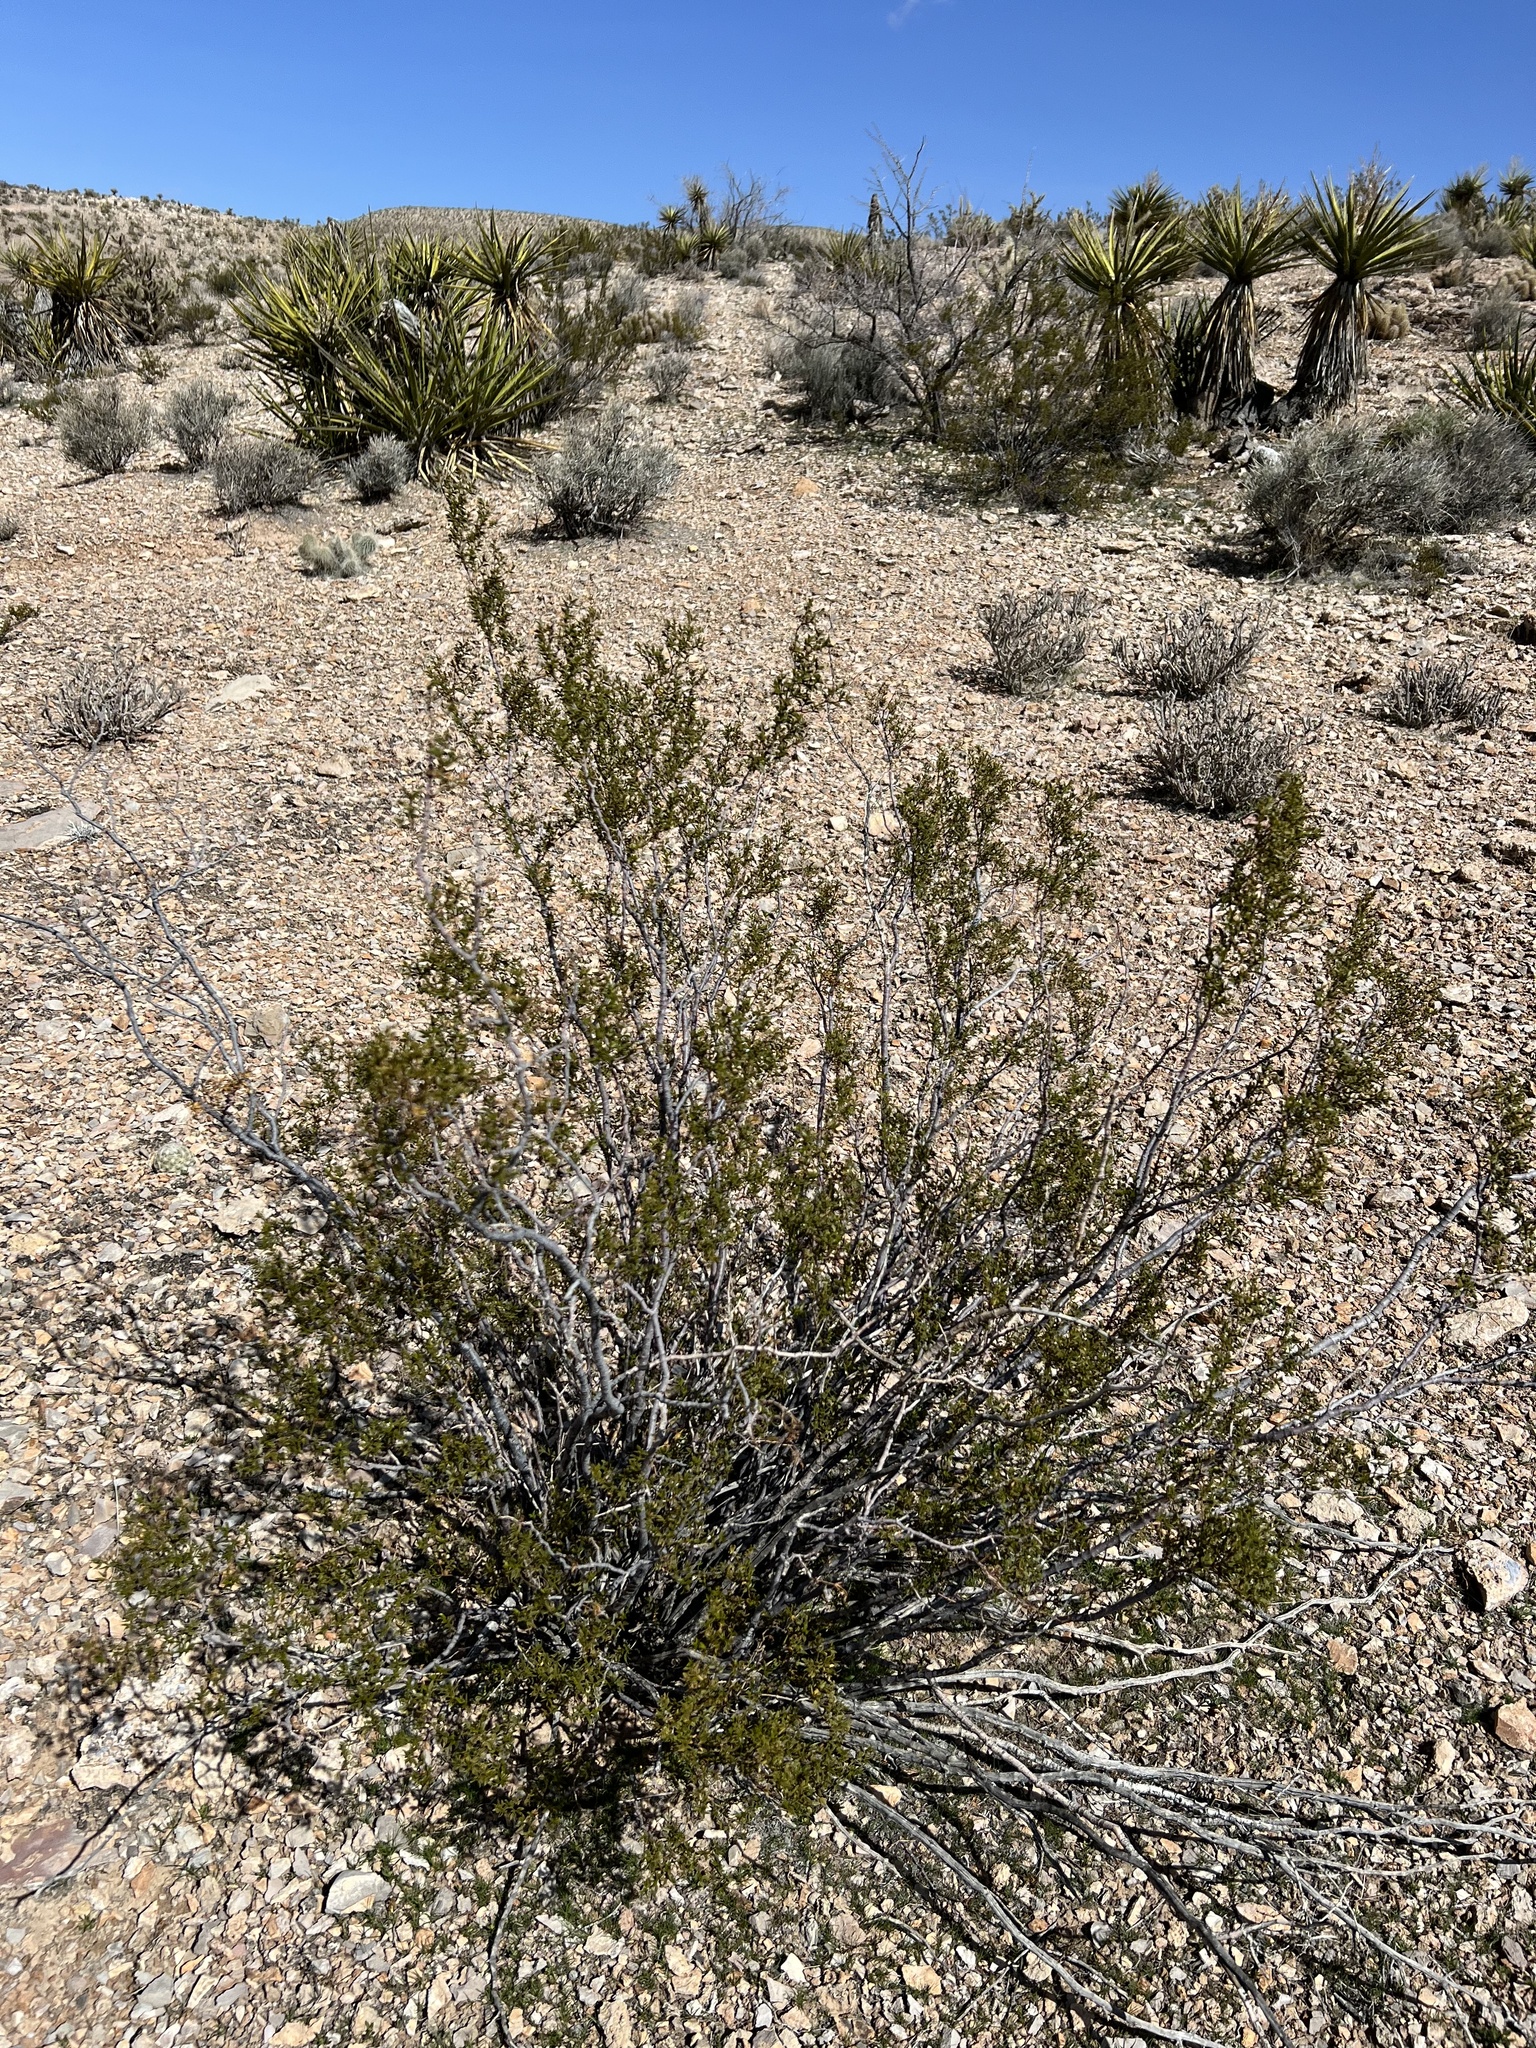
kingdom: Plantae
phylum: Tracheophyta
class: Magnoliopsida
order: Zygophyllales
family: Zygophyllaceae
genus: Larrea
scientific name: Larrea tridentata
